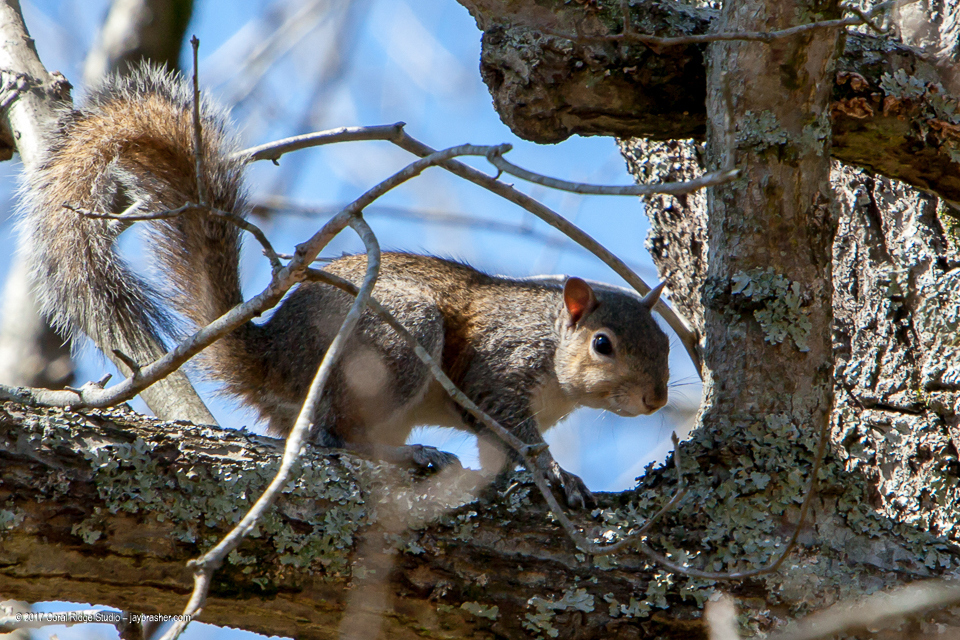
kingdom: Animalia
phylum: Chordata
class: Mammalia
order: Rodentia
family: Sciuridae
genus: Sciurus
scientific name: Sciurus carolinensis
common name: Eastern gray squirrel
